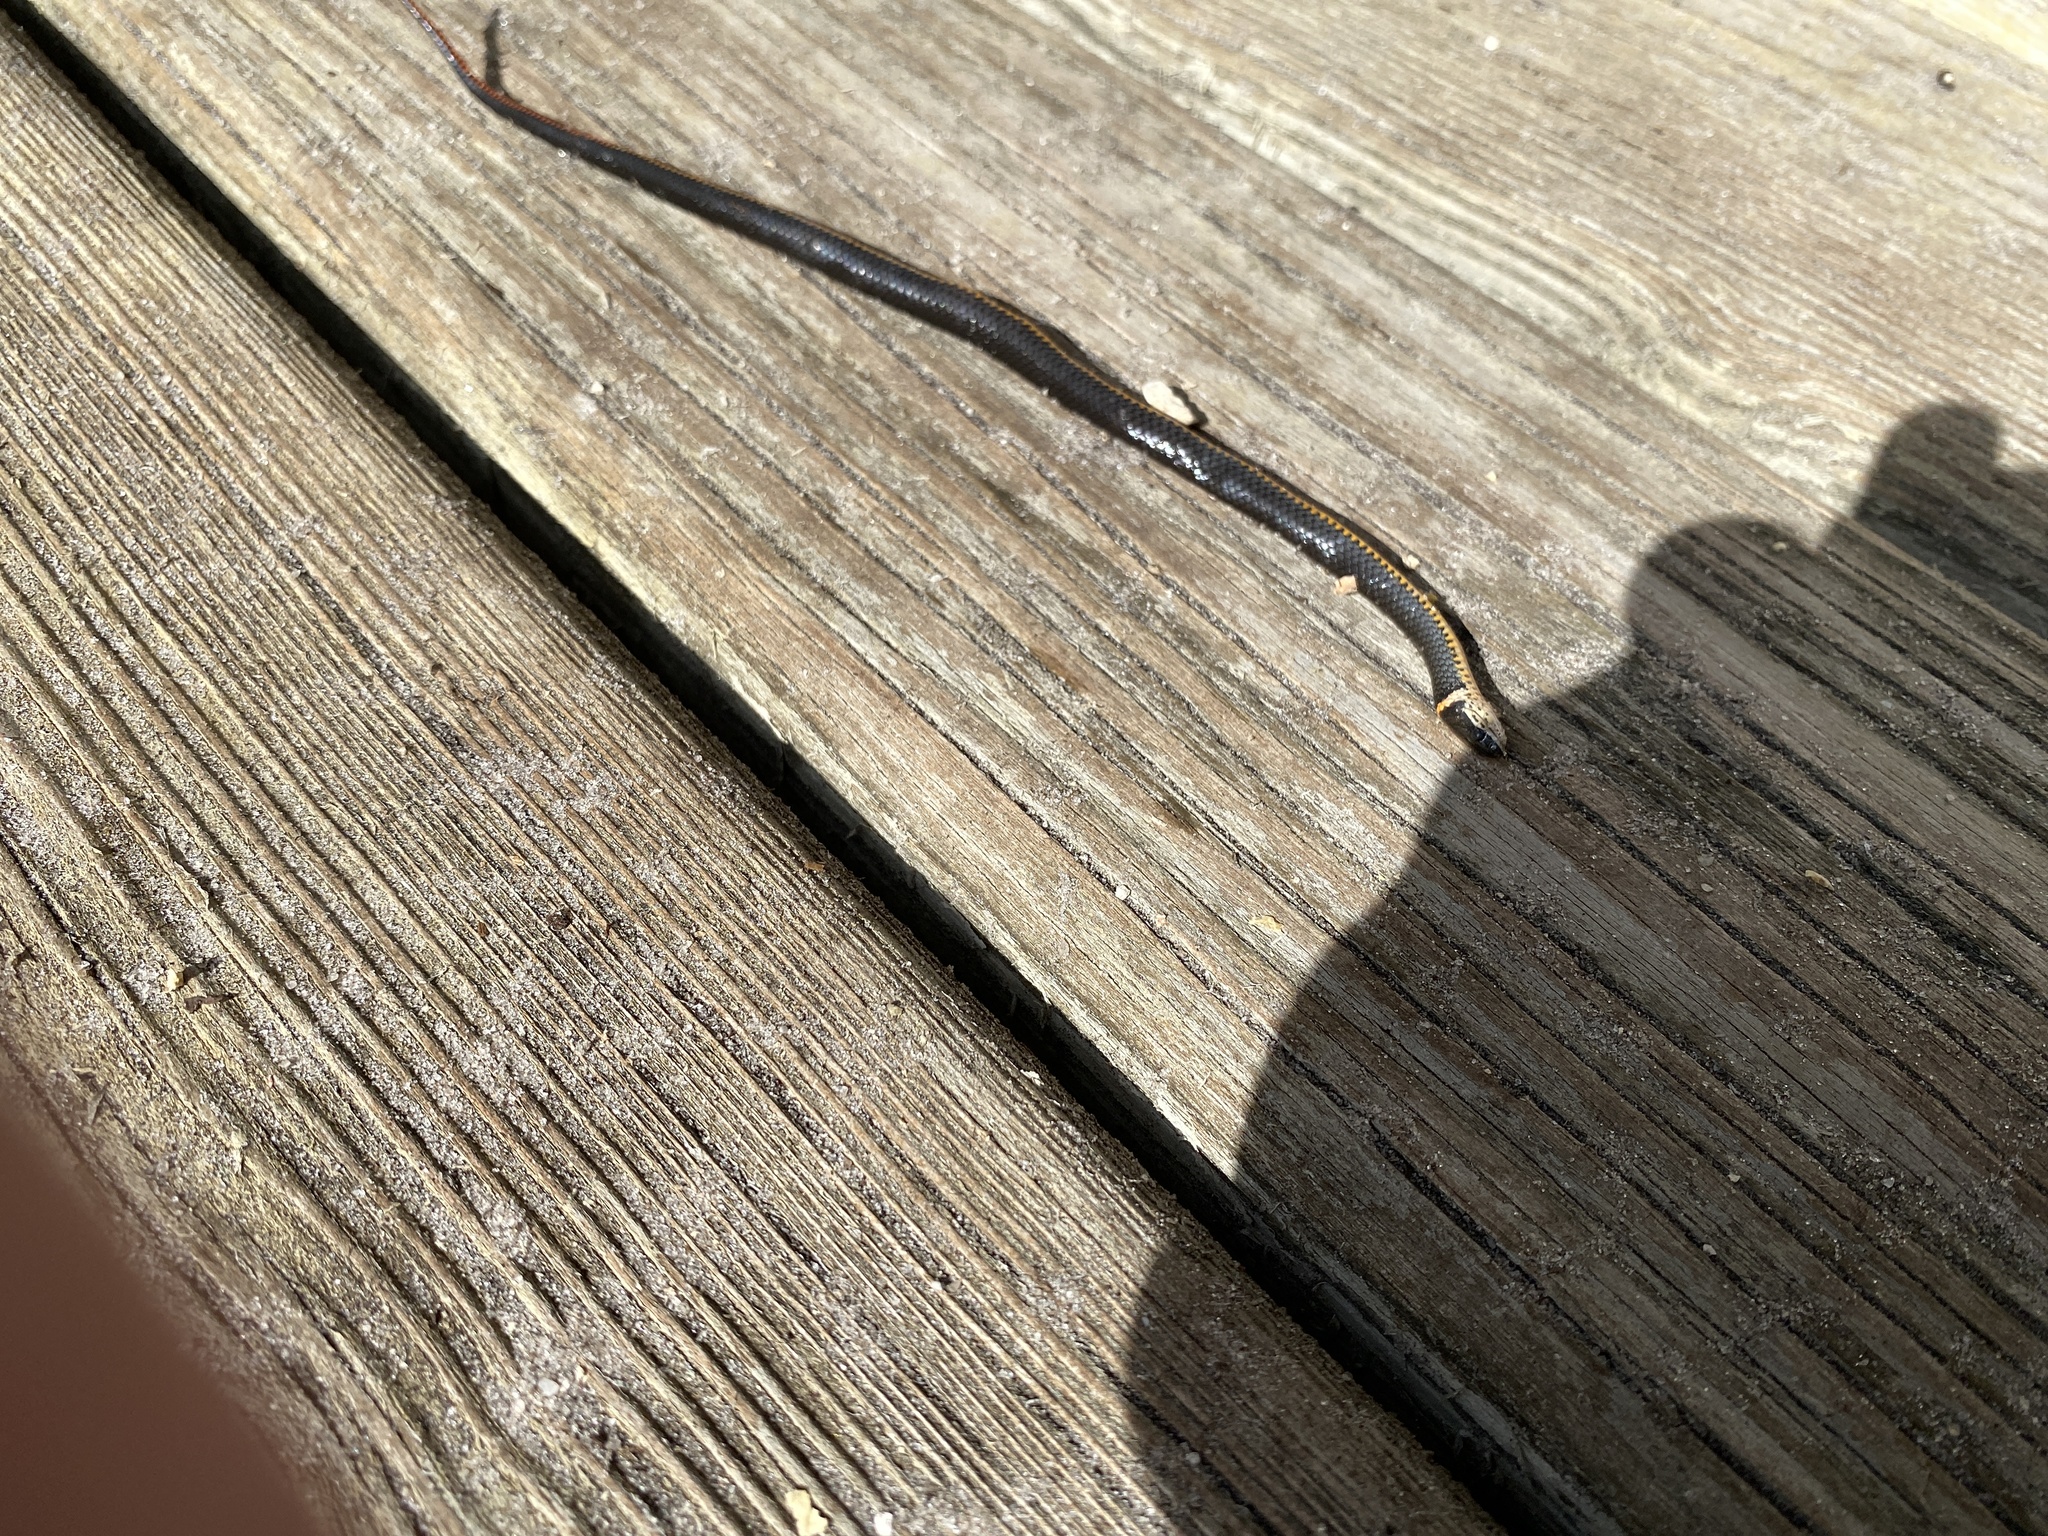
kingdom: Animalia
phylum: Chordata
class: Squamata
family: Colubridae
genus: Diadophis
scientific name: Diadophis punctatus
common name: Ringneck snake
